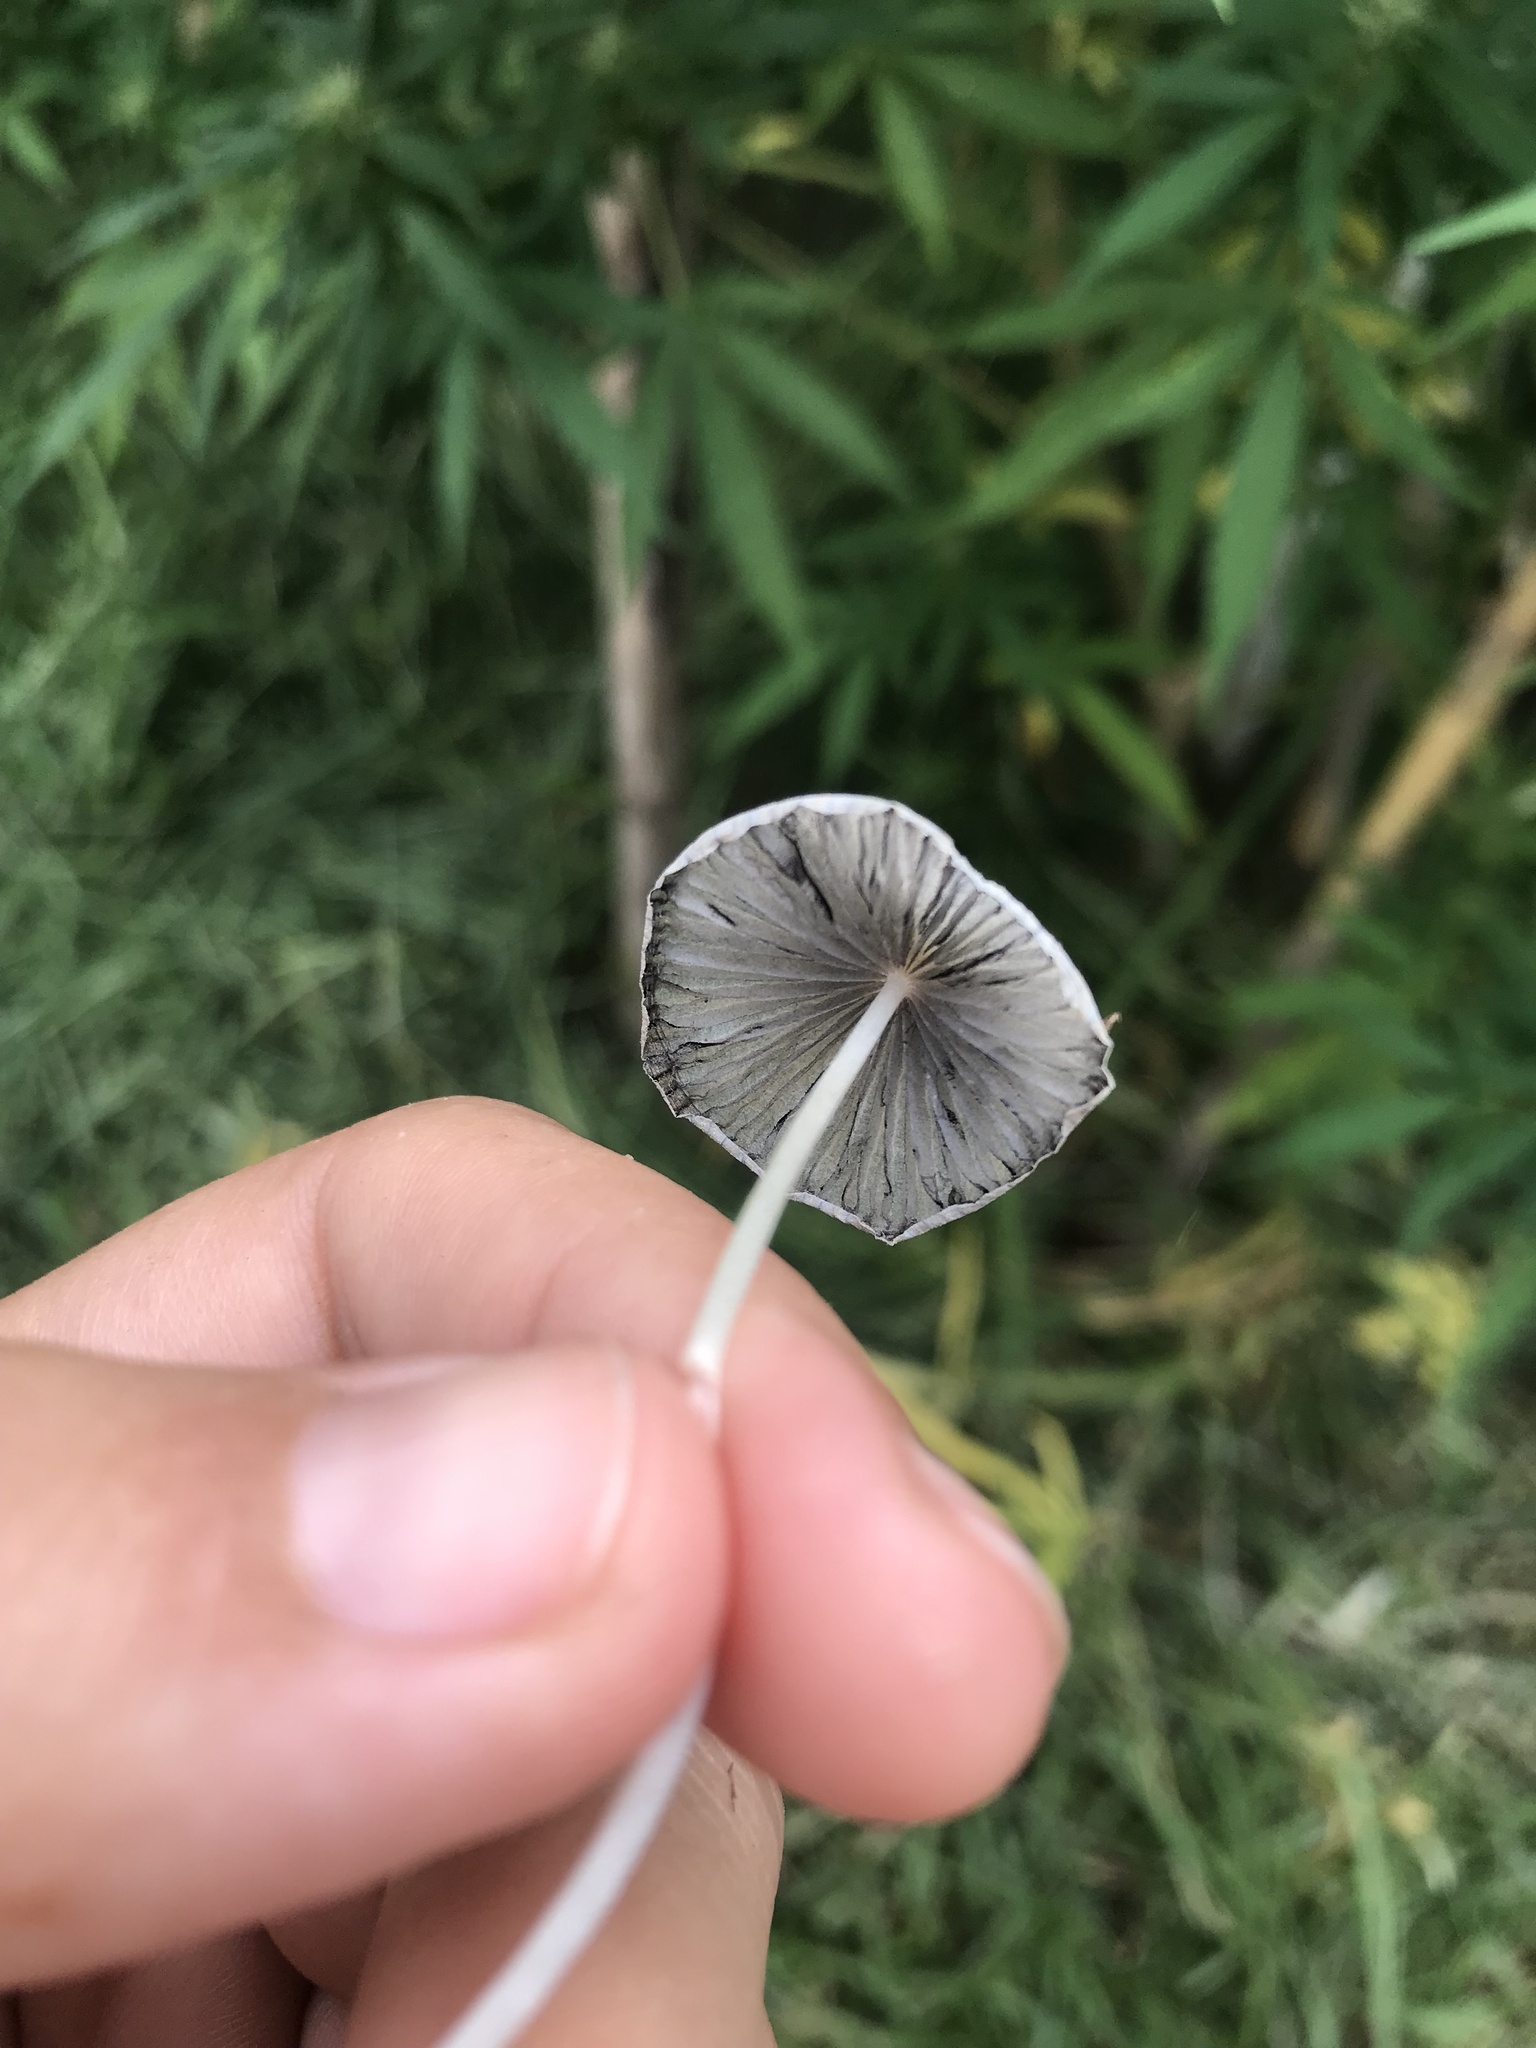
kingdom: Fungi
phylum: Basidiomycota
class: Agaricomycetes
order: Agaricales
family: Psathyrellaceae
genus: Parasola
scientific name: Parasola plicatilis
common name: Pleated inkcap
